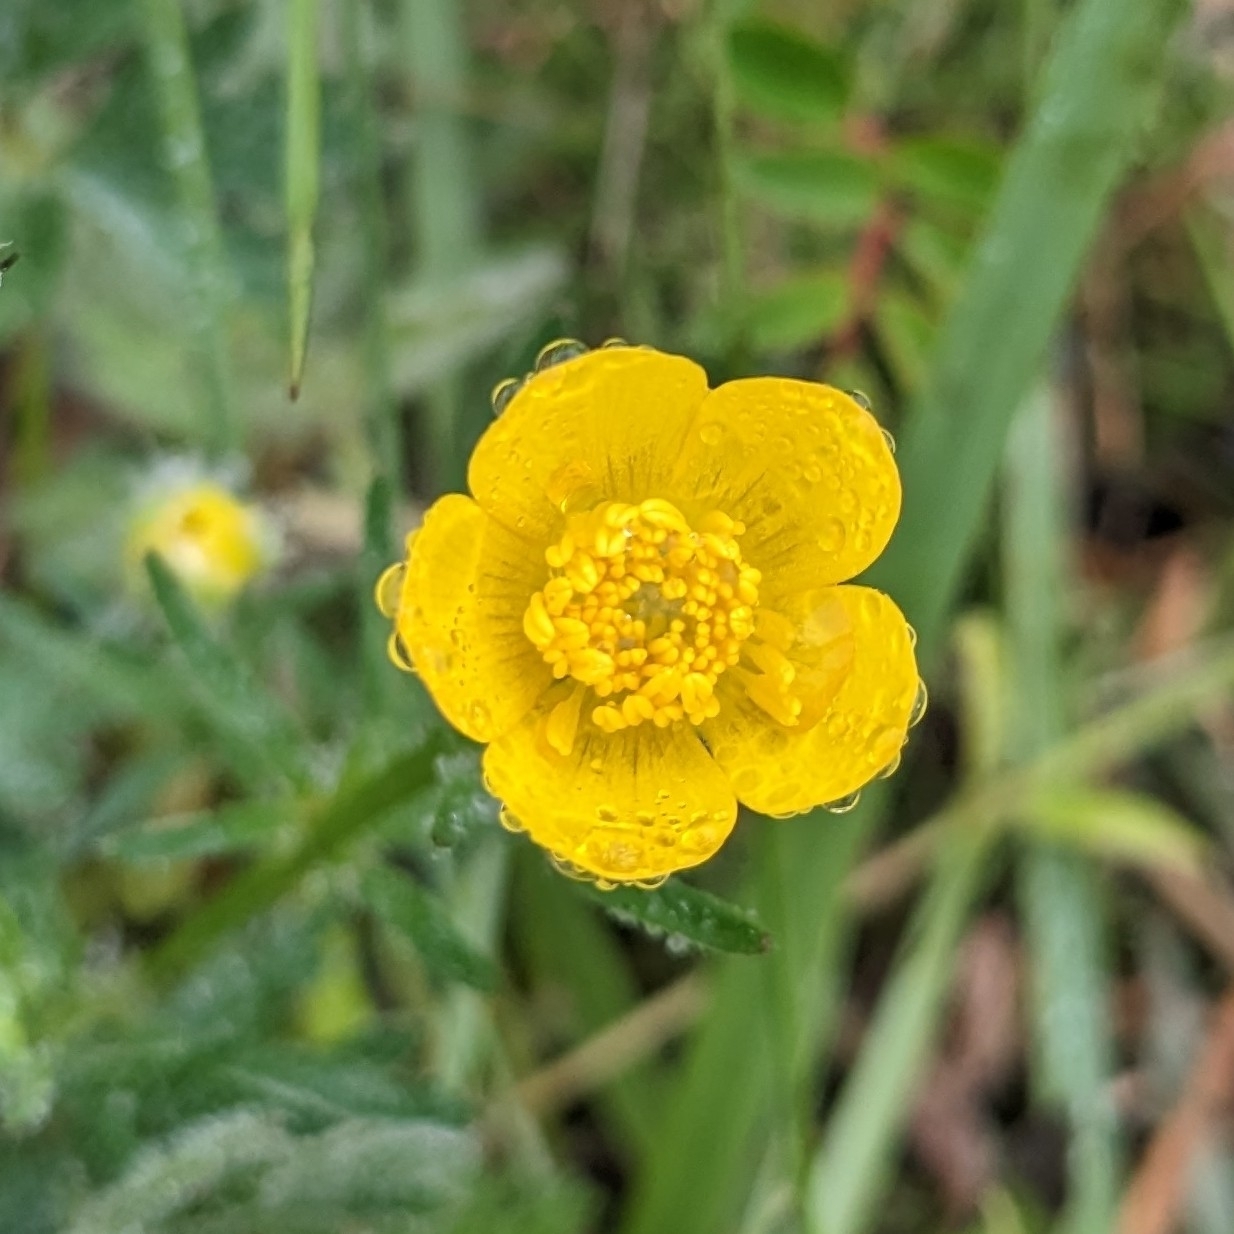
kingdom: Plantae
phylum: Tracheophyta
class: Magnoliopsida
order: Ranunculales
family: Ranunculaceae
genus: Ranunculus
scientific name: Ranunculus bulbosus
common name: Bulbous buttercup
